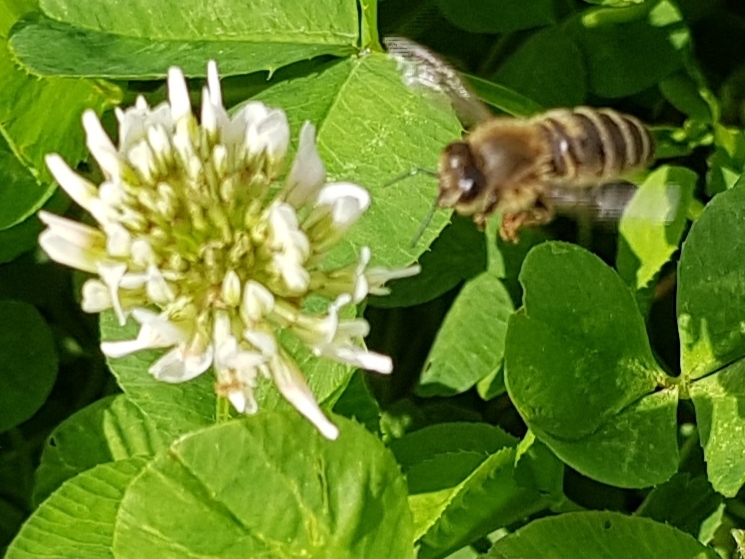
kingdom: Animalia
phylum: Arthropoda
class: Insecta
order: Hymenoptera
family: Apidae
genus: Apis
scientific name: Apis mellifera
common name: Honey bee
